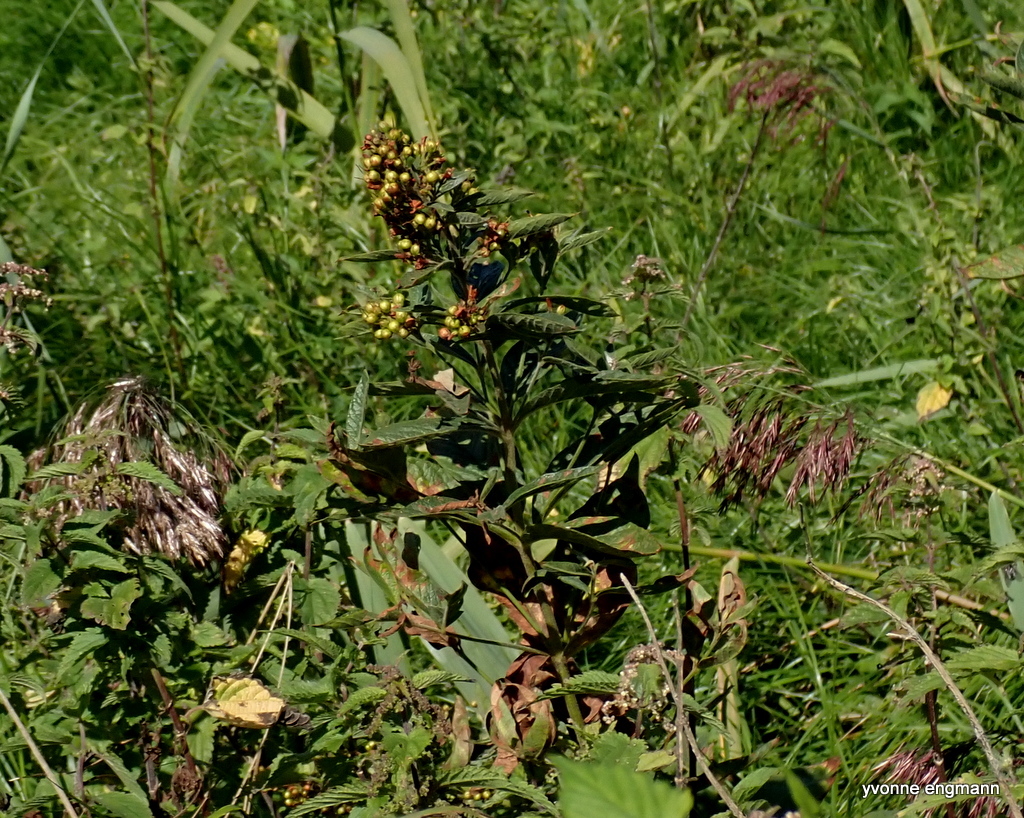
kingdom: Plantae
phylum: Tracheophyta
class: Magnoliopsida
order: Ericales
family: Primulaceae
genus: Lysimachia
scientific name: Lysimachia vulgaris
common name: Yellow loosestrife
